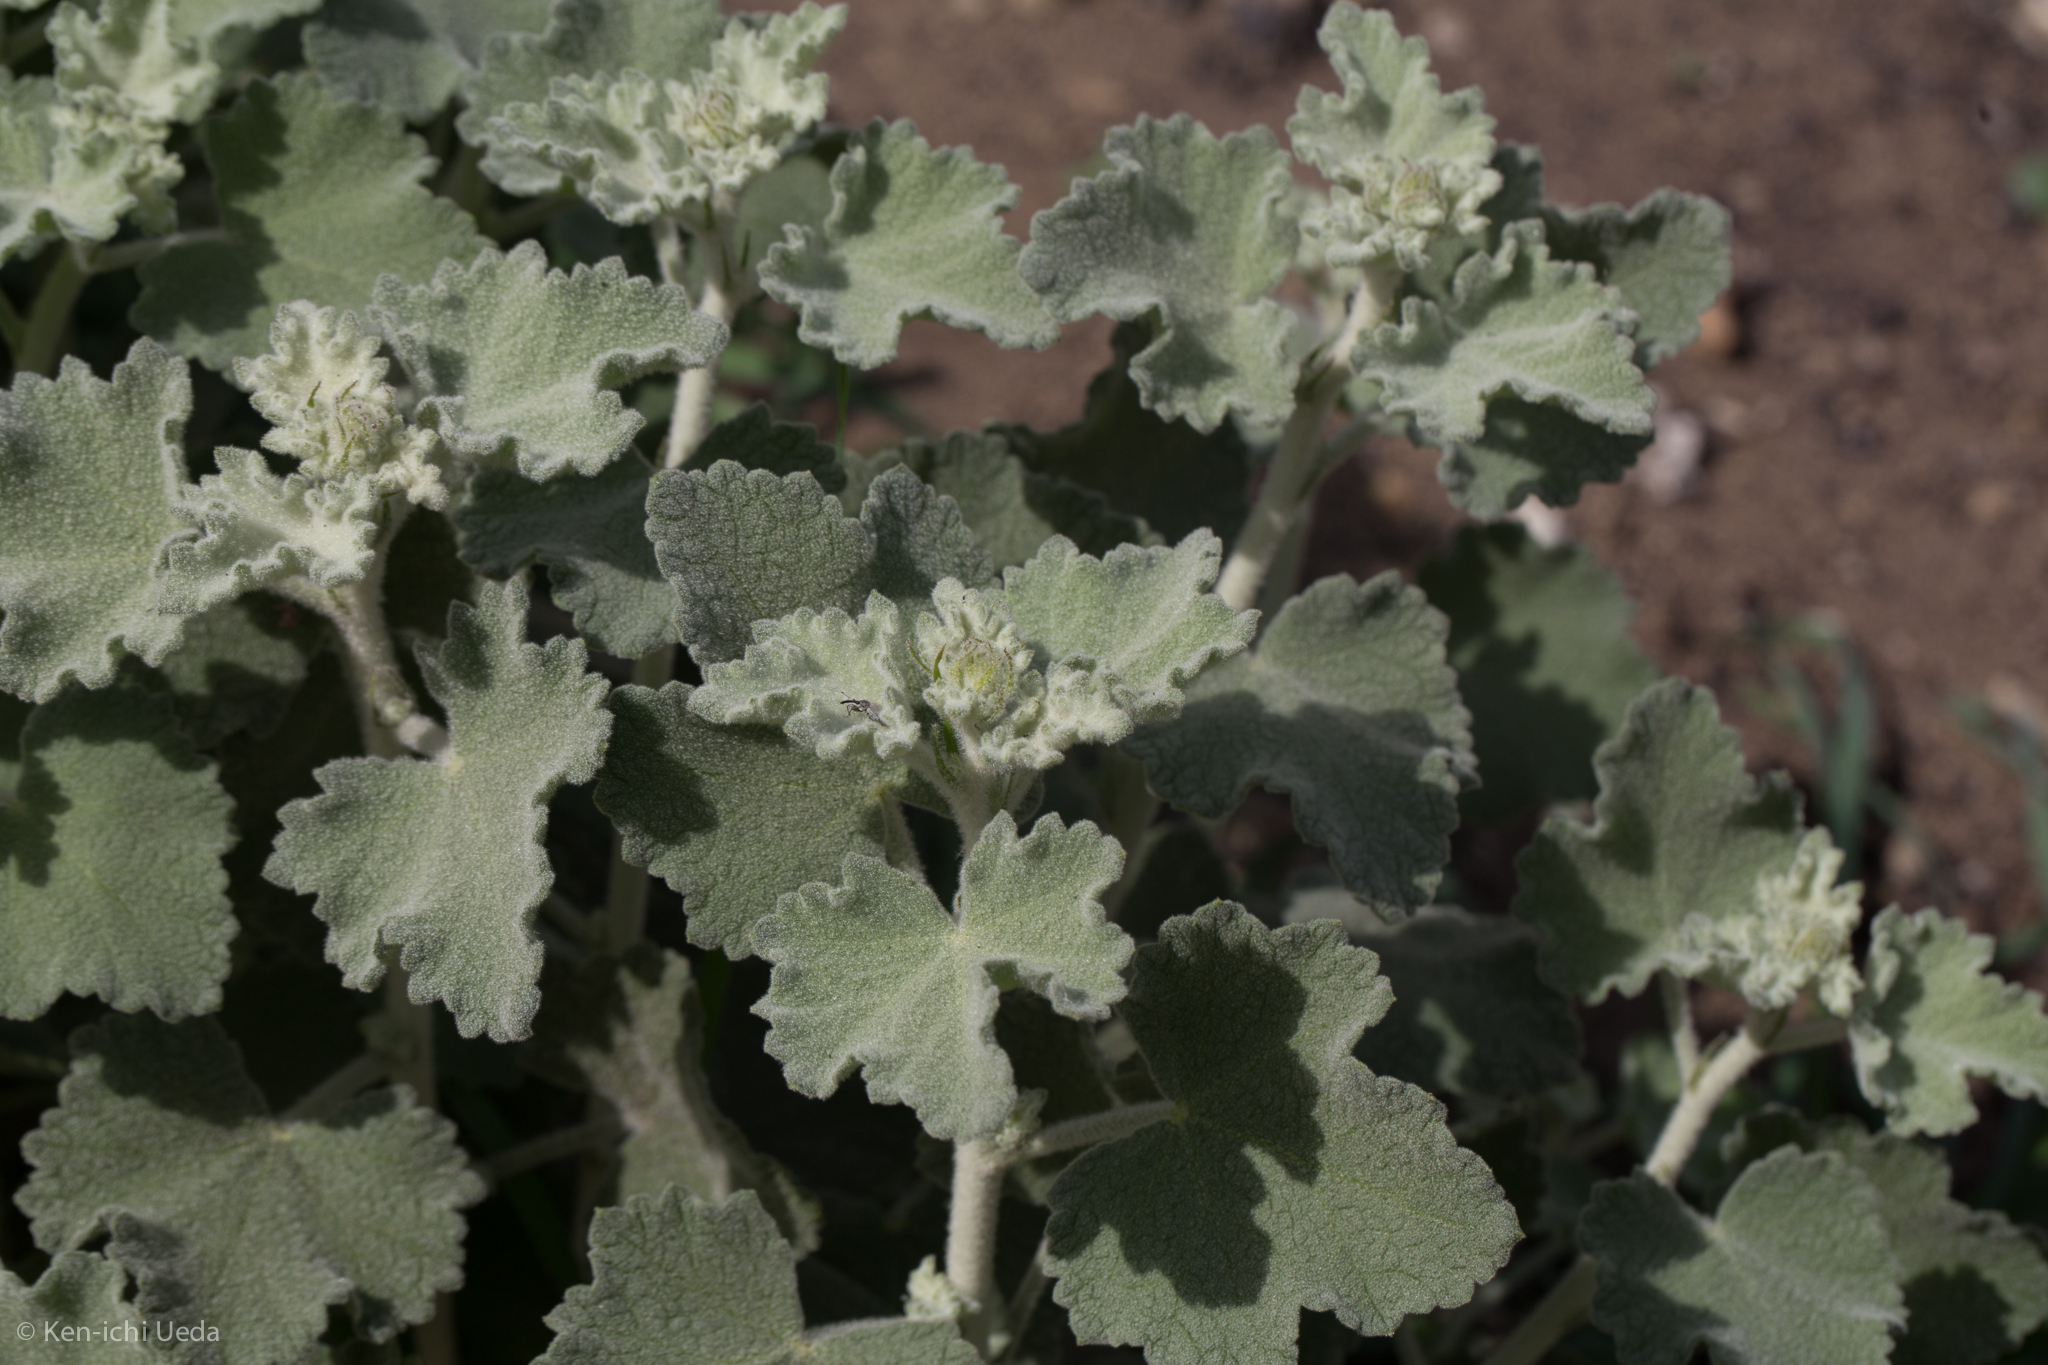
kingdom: Plantae
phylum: Tracheophyta
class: Magnoliopsida
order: Malvales
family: Malvaceae
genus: Malacothamnus
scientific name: Malacothamnus fremontii
